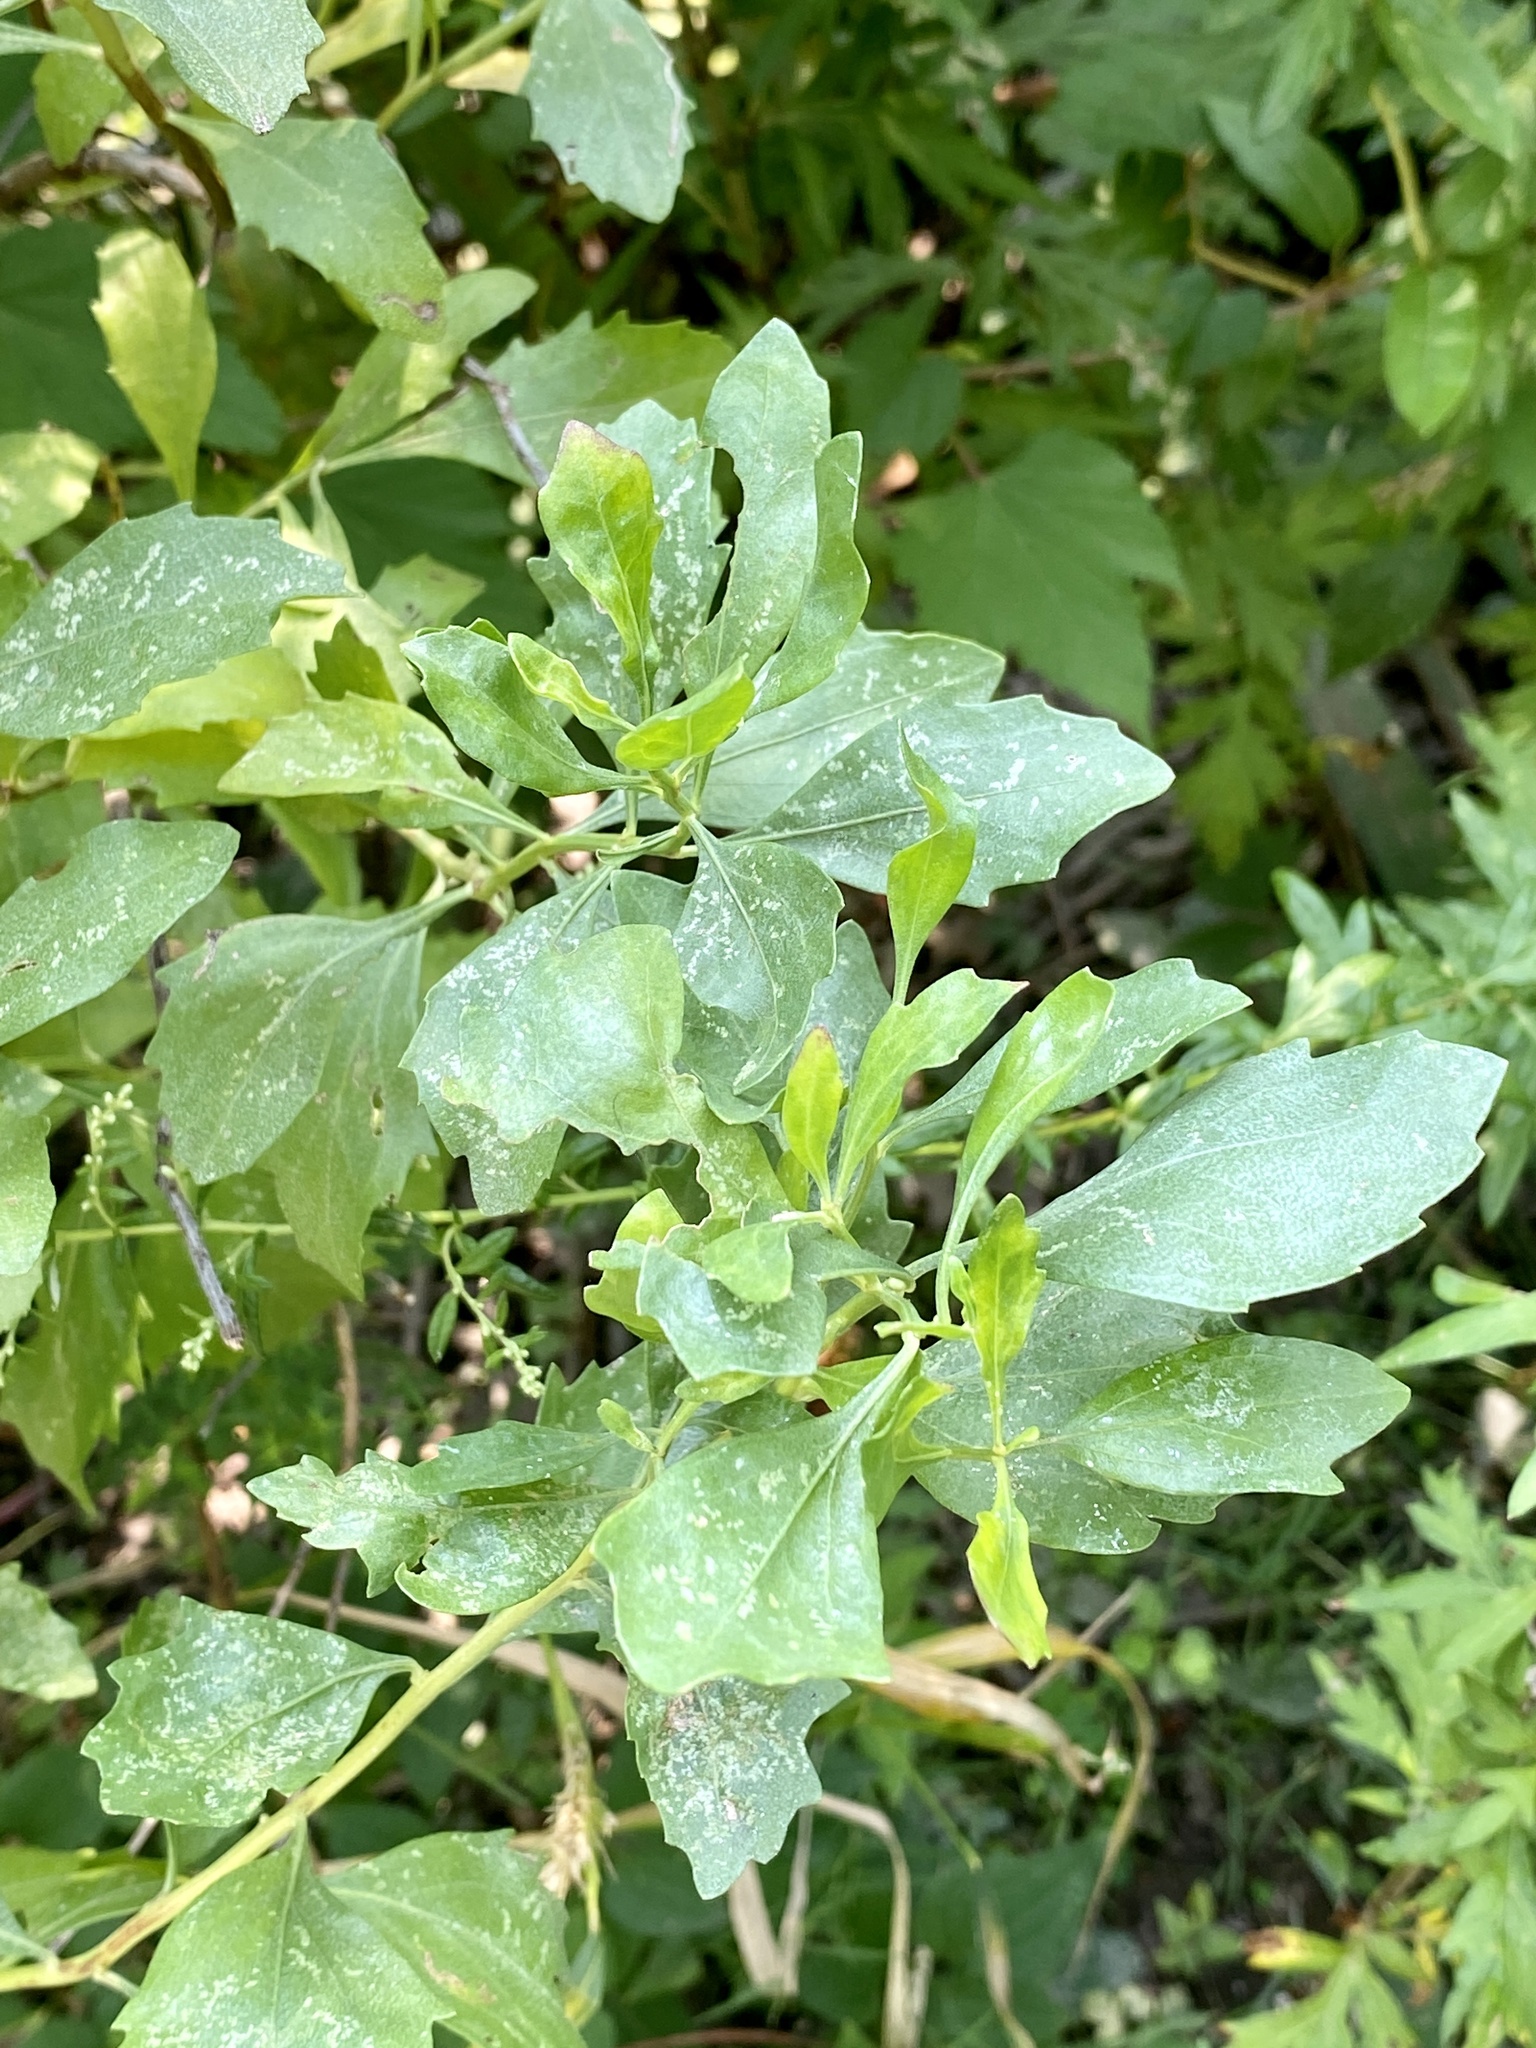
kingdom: Plantae
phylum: Tracheophyta
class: Magnoliopsida
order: Asterales
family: Asteraceae
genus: Baccharis
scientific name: Baccharis halimifolia
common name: Eastern baccharis
